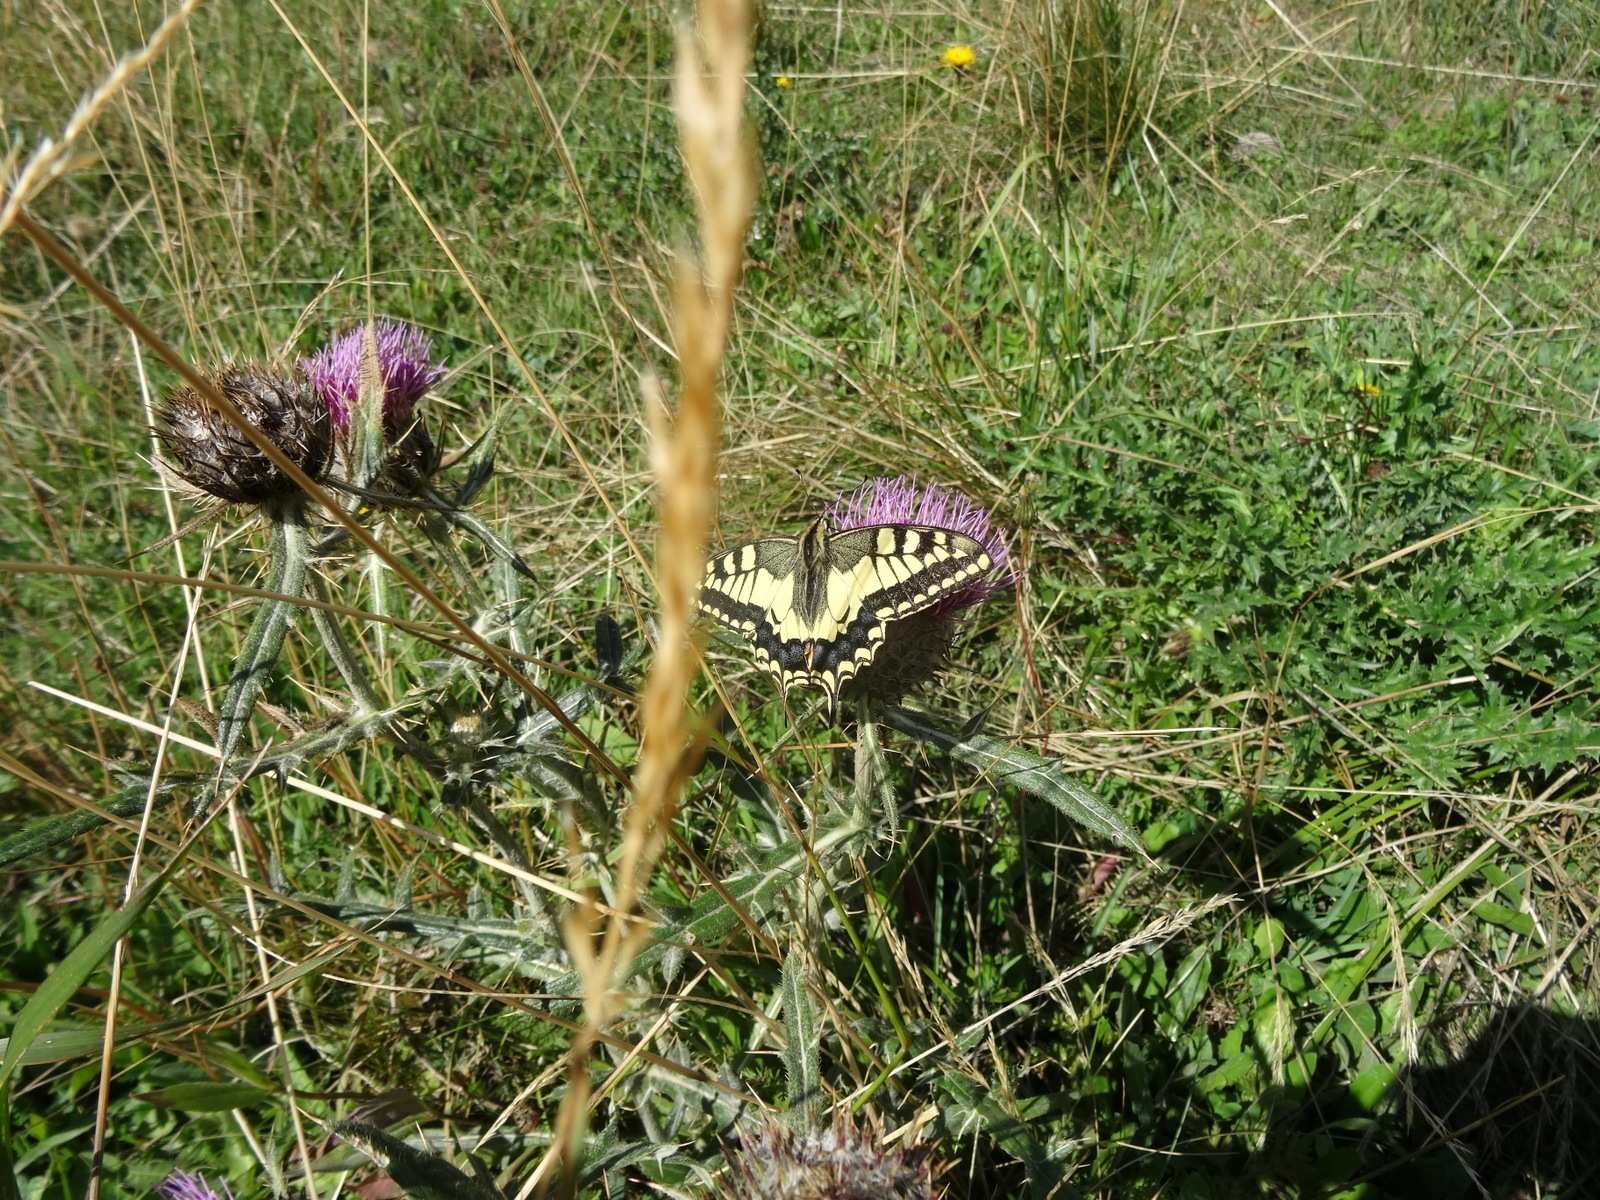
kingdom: Animalia
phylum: Arthropoda
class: Insecta
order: Lepidoptera
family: Papilionidae
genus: Papilio
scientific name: Papilio machaon
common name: Swallowtail
